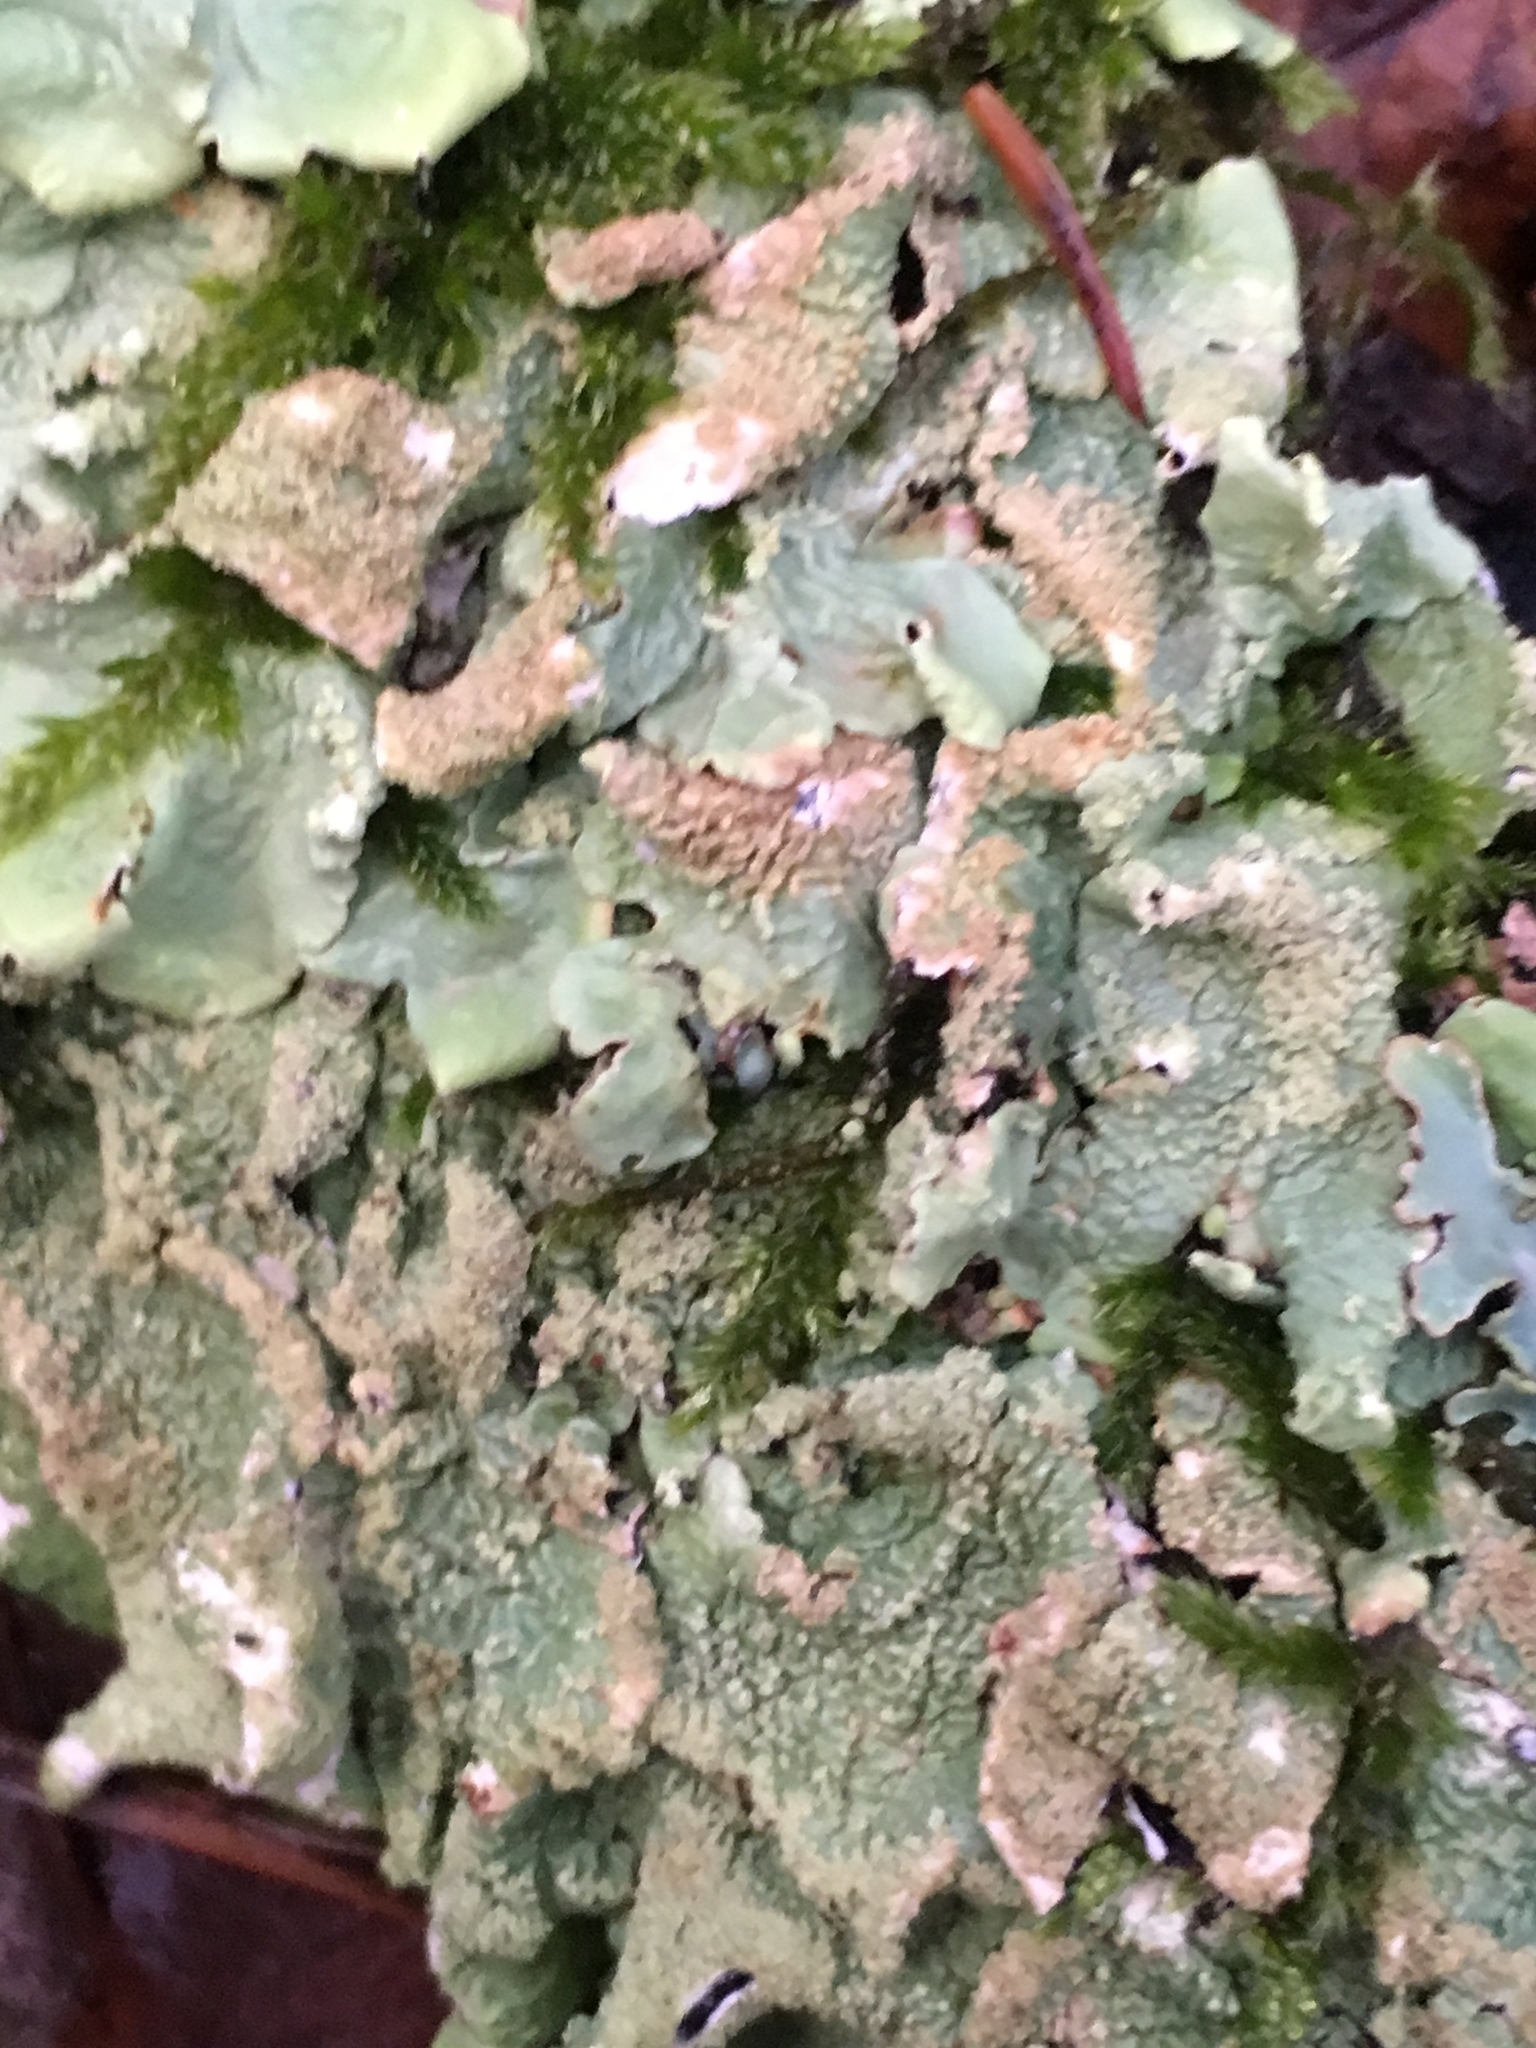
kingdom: Fungi
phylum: Ascomycota
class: Lecanoromycetes
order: Lecanorales
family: Parmeliaceae
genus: Flavoparmelia
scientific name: Flavoparmelia caperata
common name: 40-mile per hour lichen
